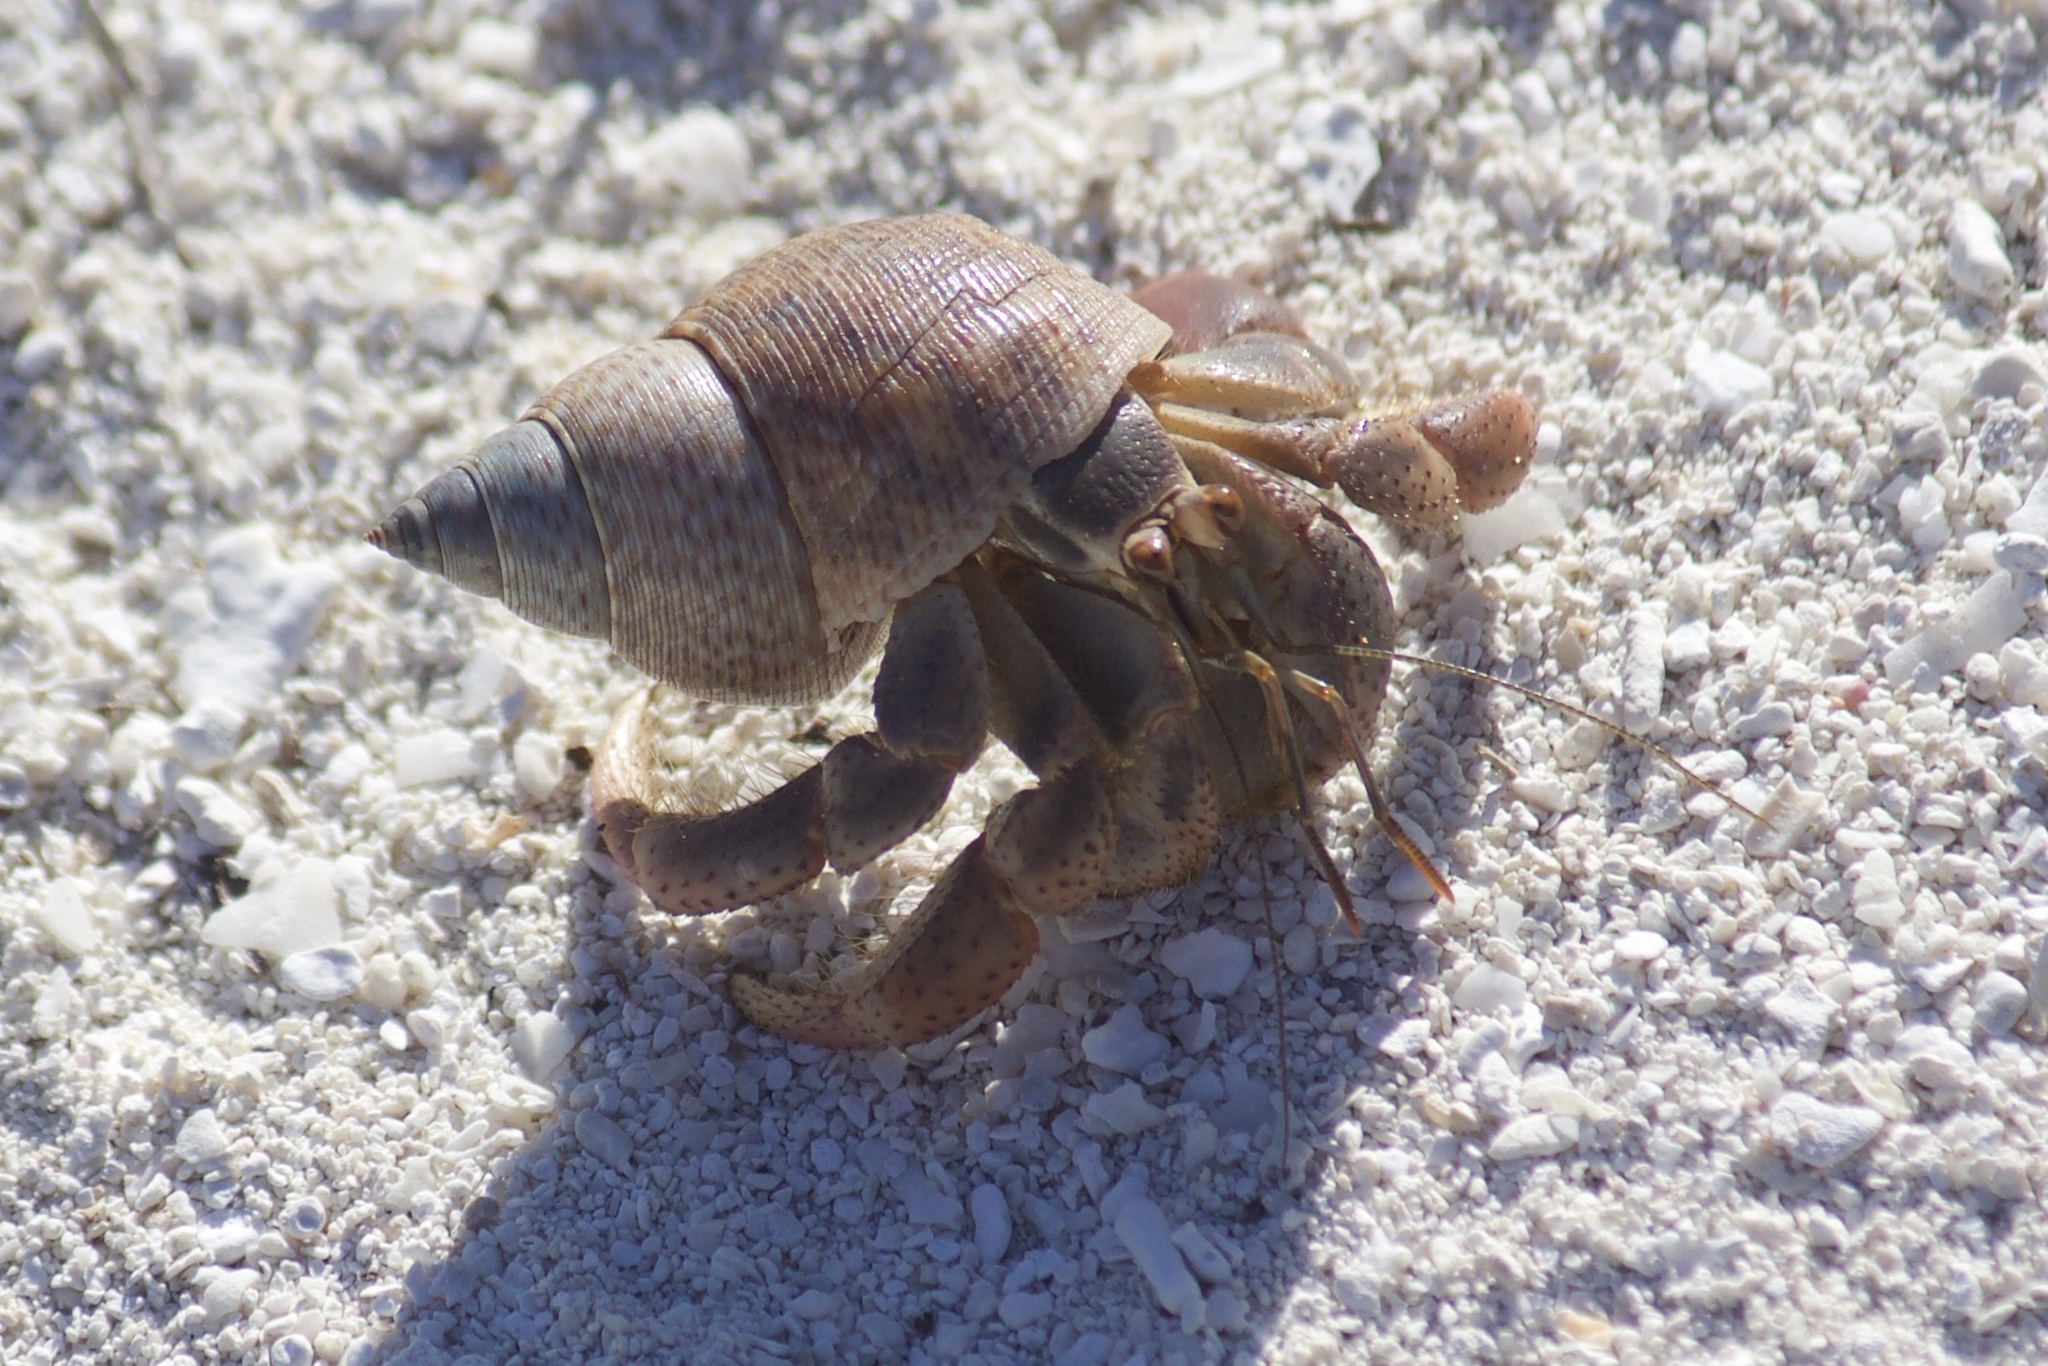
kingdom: Animalia
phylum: Arthropoda
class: Malacostraca
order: Decapoda
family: Coenobitidae
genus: Coenobita
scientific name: Coenobita clypeatus
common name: Caribbean hermit crab
